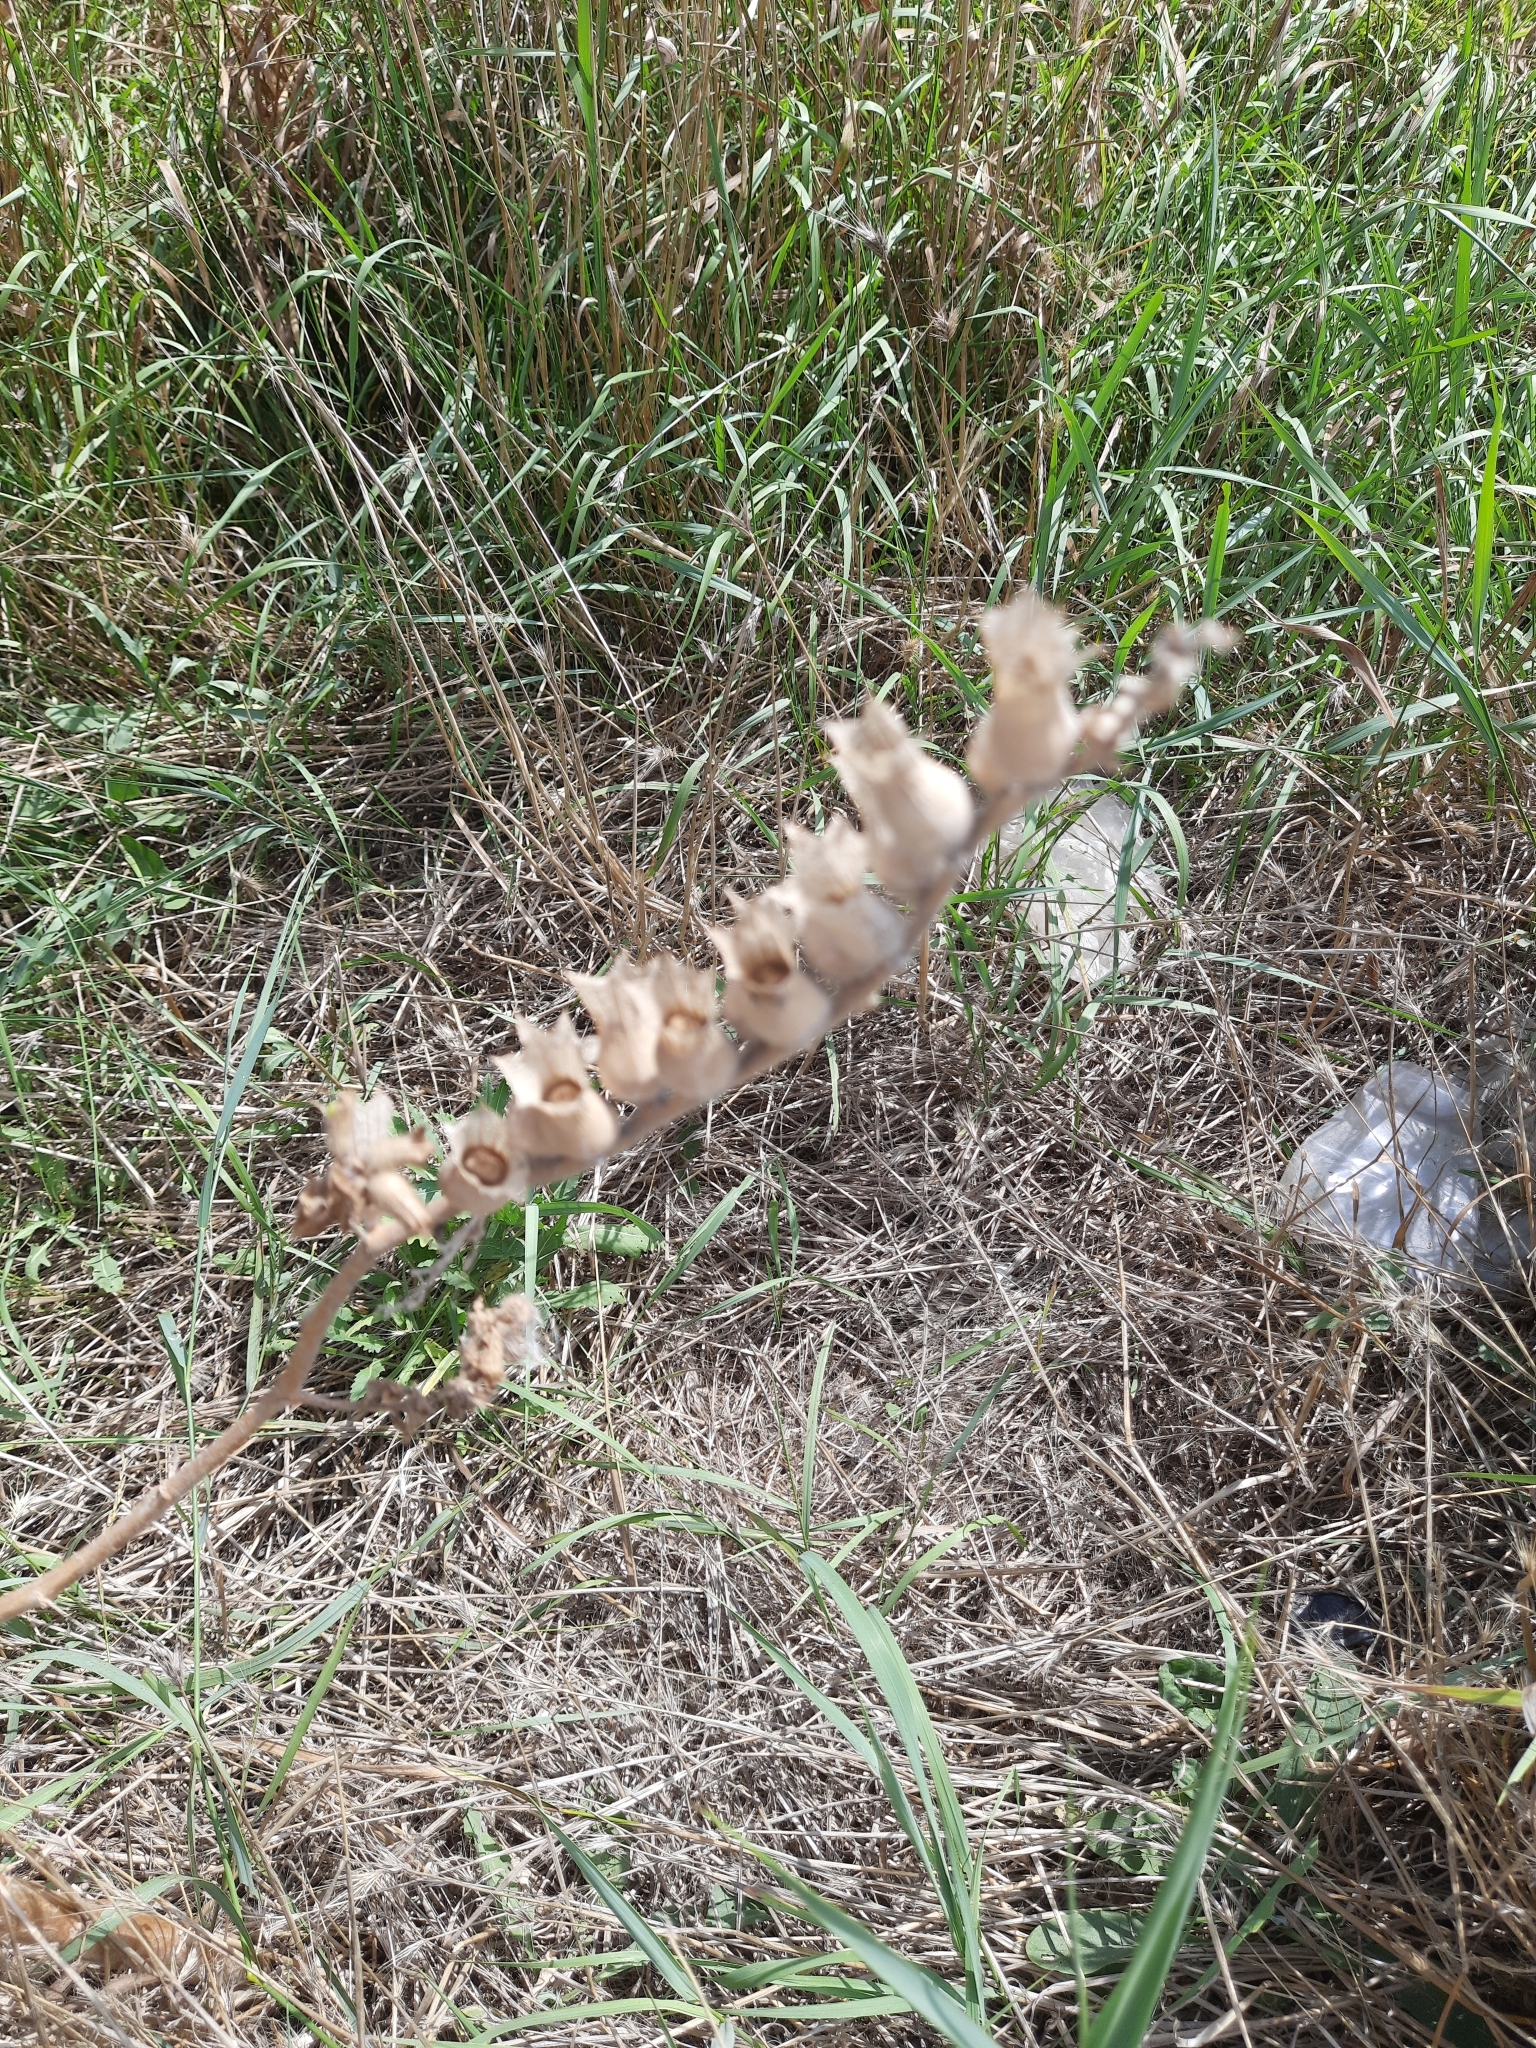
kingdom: Plantae
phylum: Tracheophyta
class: Magnoliopsida
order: Solanales
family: Solanaceae
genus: Hyoscyamus
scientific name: Hyoscyamus niger
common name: Henbane
